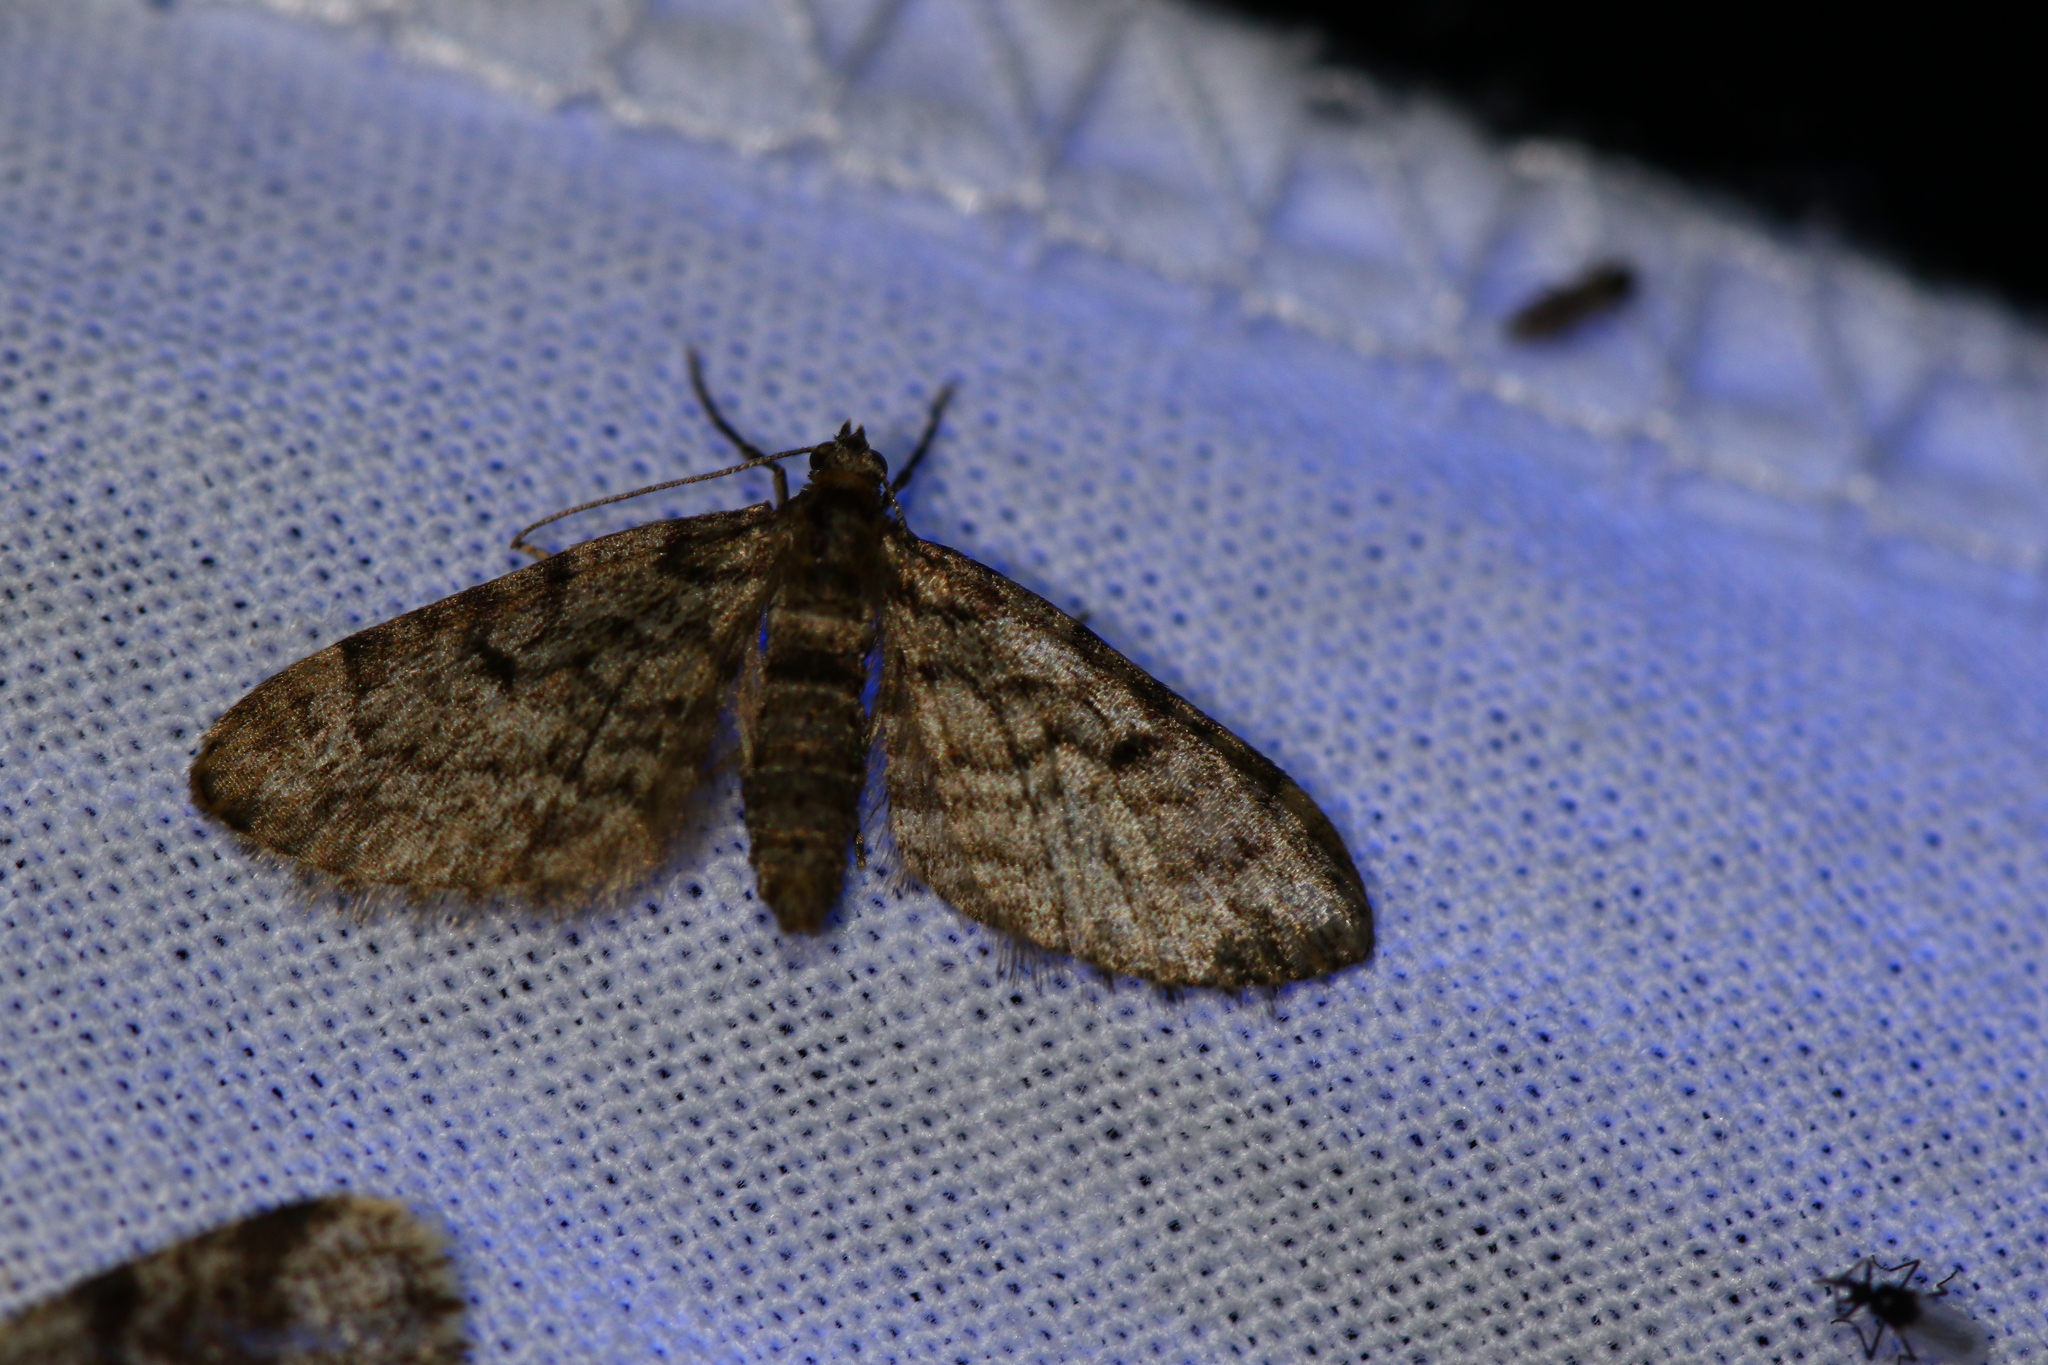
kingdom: Animalia
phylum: Arthropoda
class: Insecta
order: Lepidoptera
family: Geometridae
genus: Eupithecia
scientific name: Eupithecia tantillaria
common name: Dwarf pug
